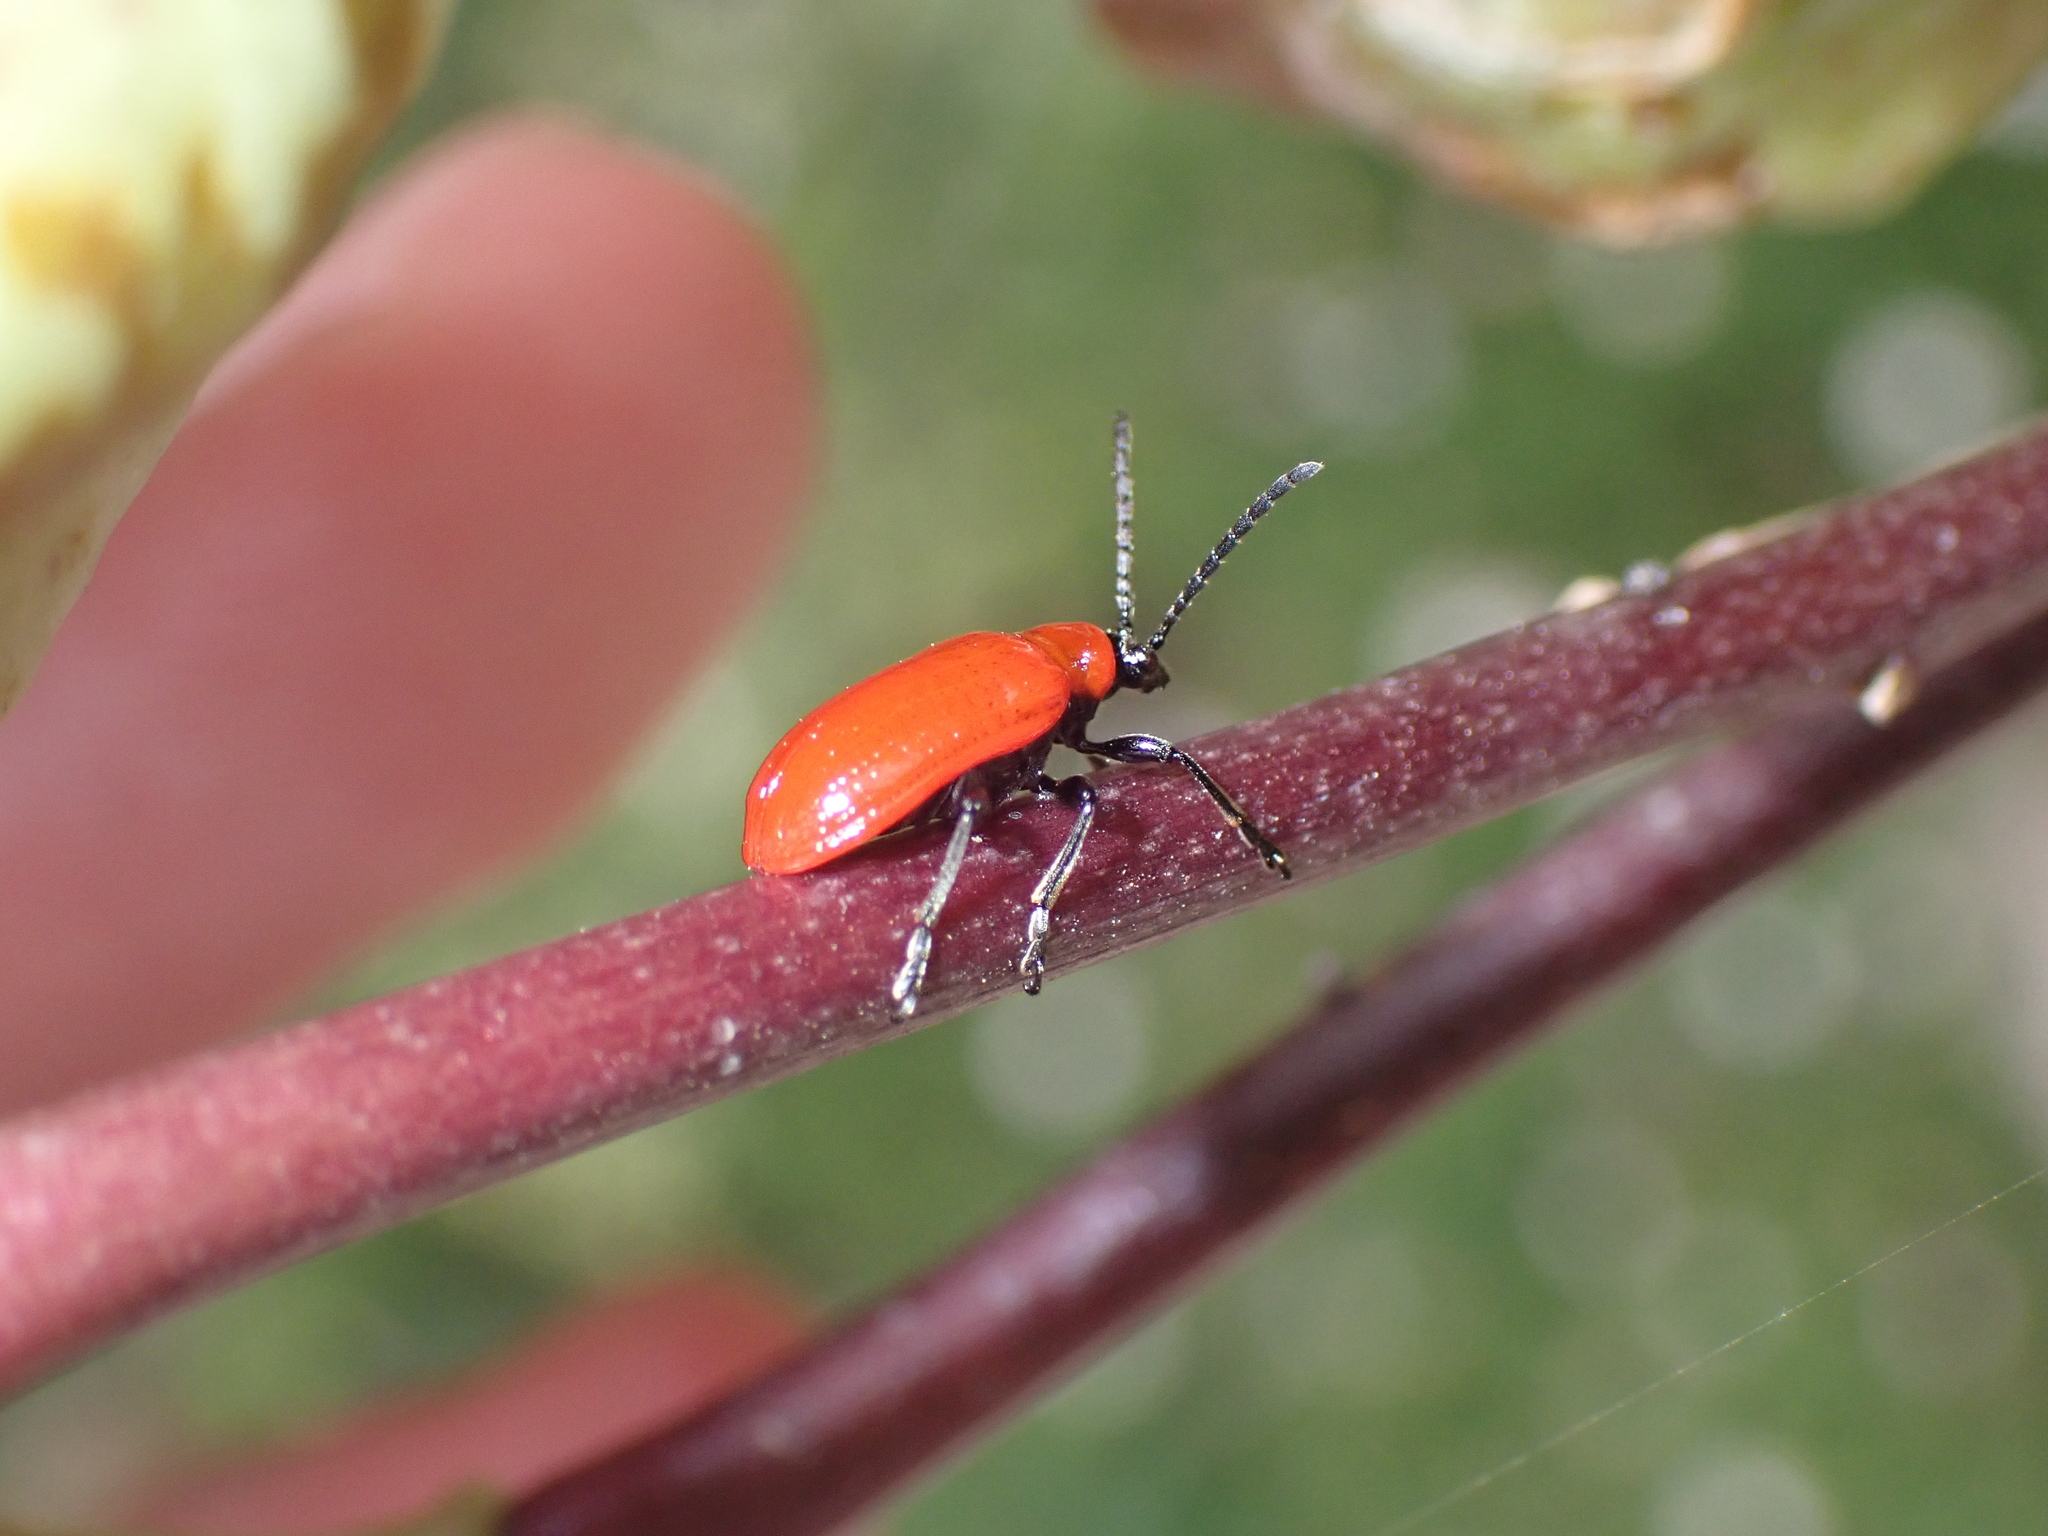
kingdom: Animalia
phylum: Arthropoda
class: Insecta
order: Coleoptera
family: Chrysomelidae
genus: Lilioceris
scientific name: Lilioceris lilii
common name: Lily beetle
